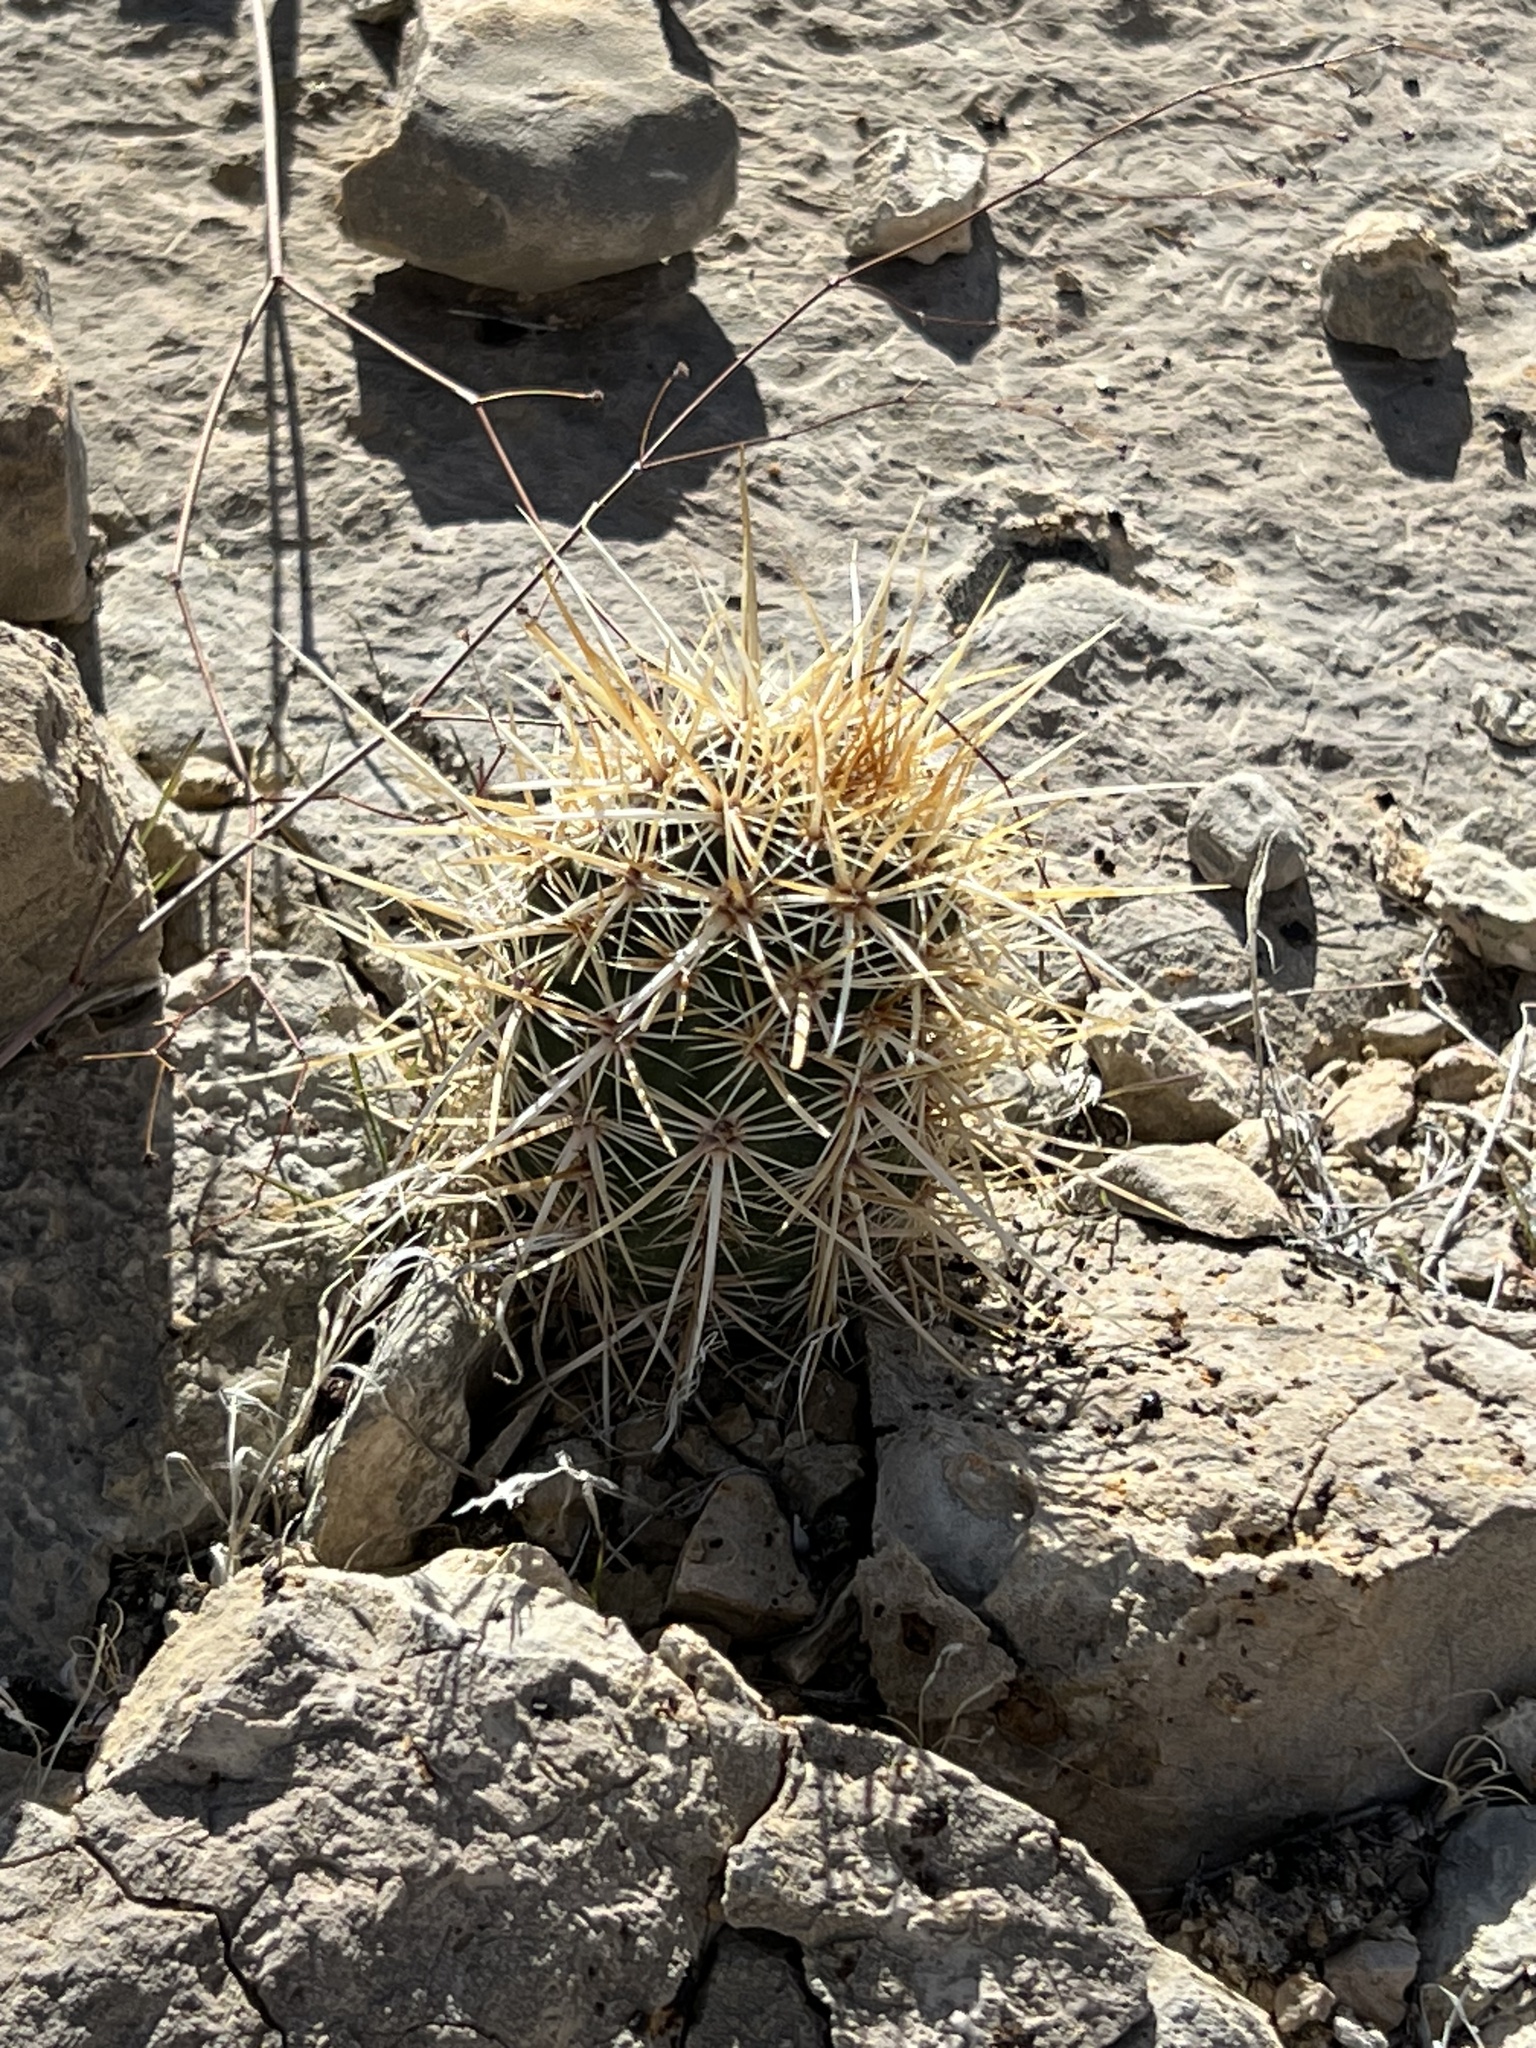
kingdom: Plantae
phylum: Tracheophyta
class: Magnoliopsida
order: Caryophyllales
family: Cactaceae
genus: Echinocereus
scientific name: Echinocereus engelmannii
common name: Engelmann's hedgehog cactus
